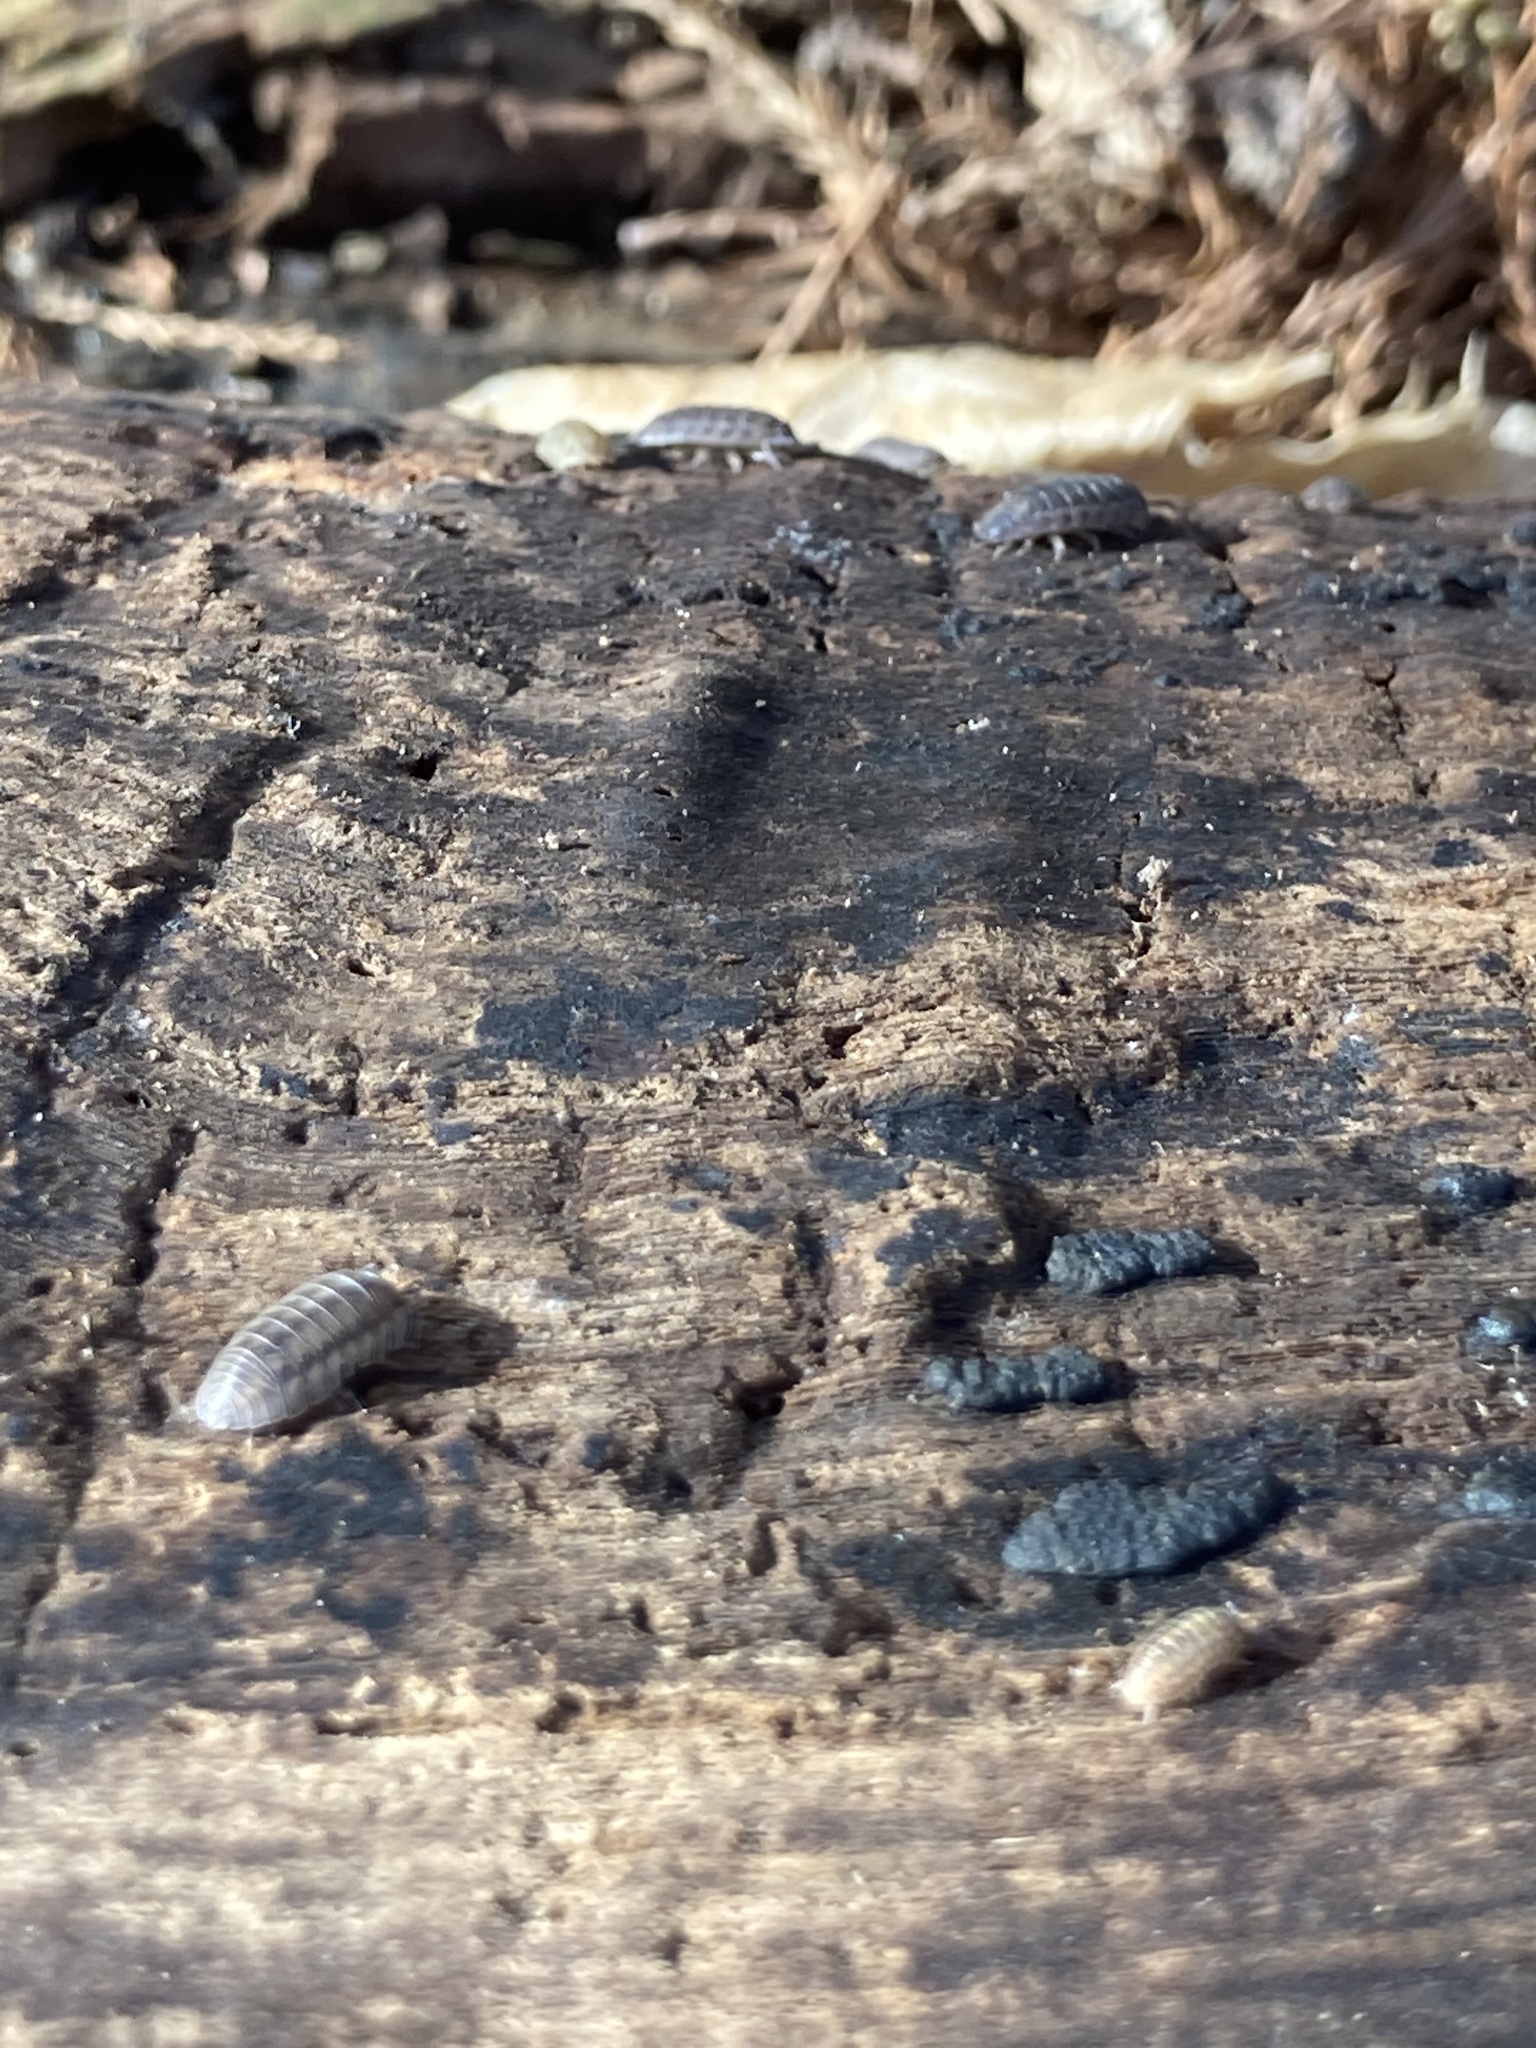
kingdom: Animalia
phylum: Arthropoda
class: Malacostraca
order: Isopoda
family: Armadillidiidae
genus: Armadillidium
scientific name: Armadillidium nasatum
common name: Isopod
